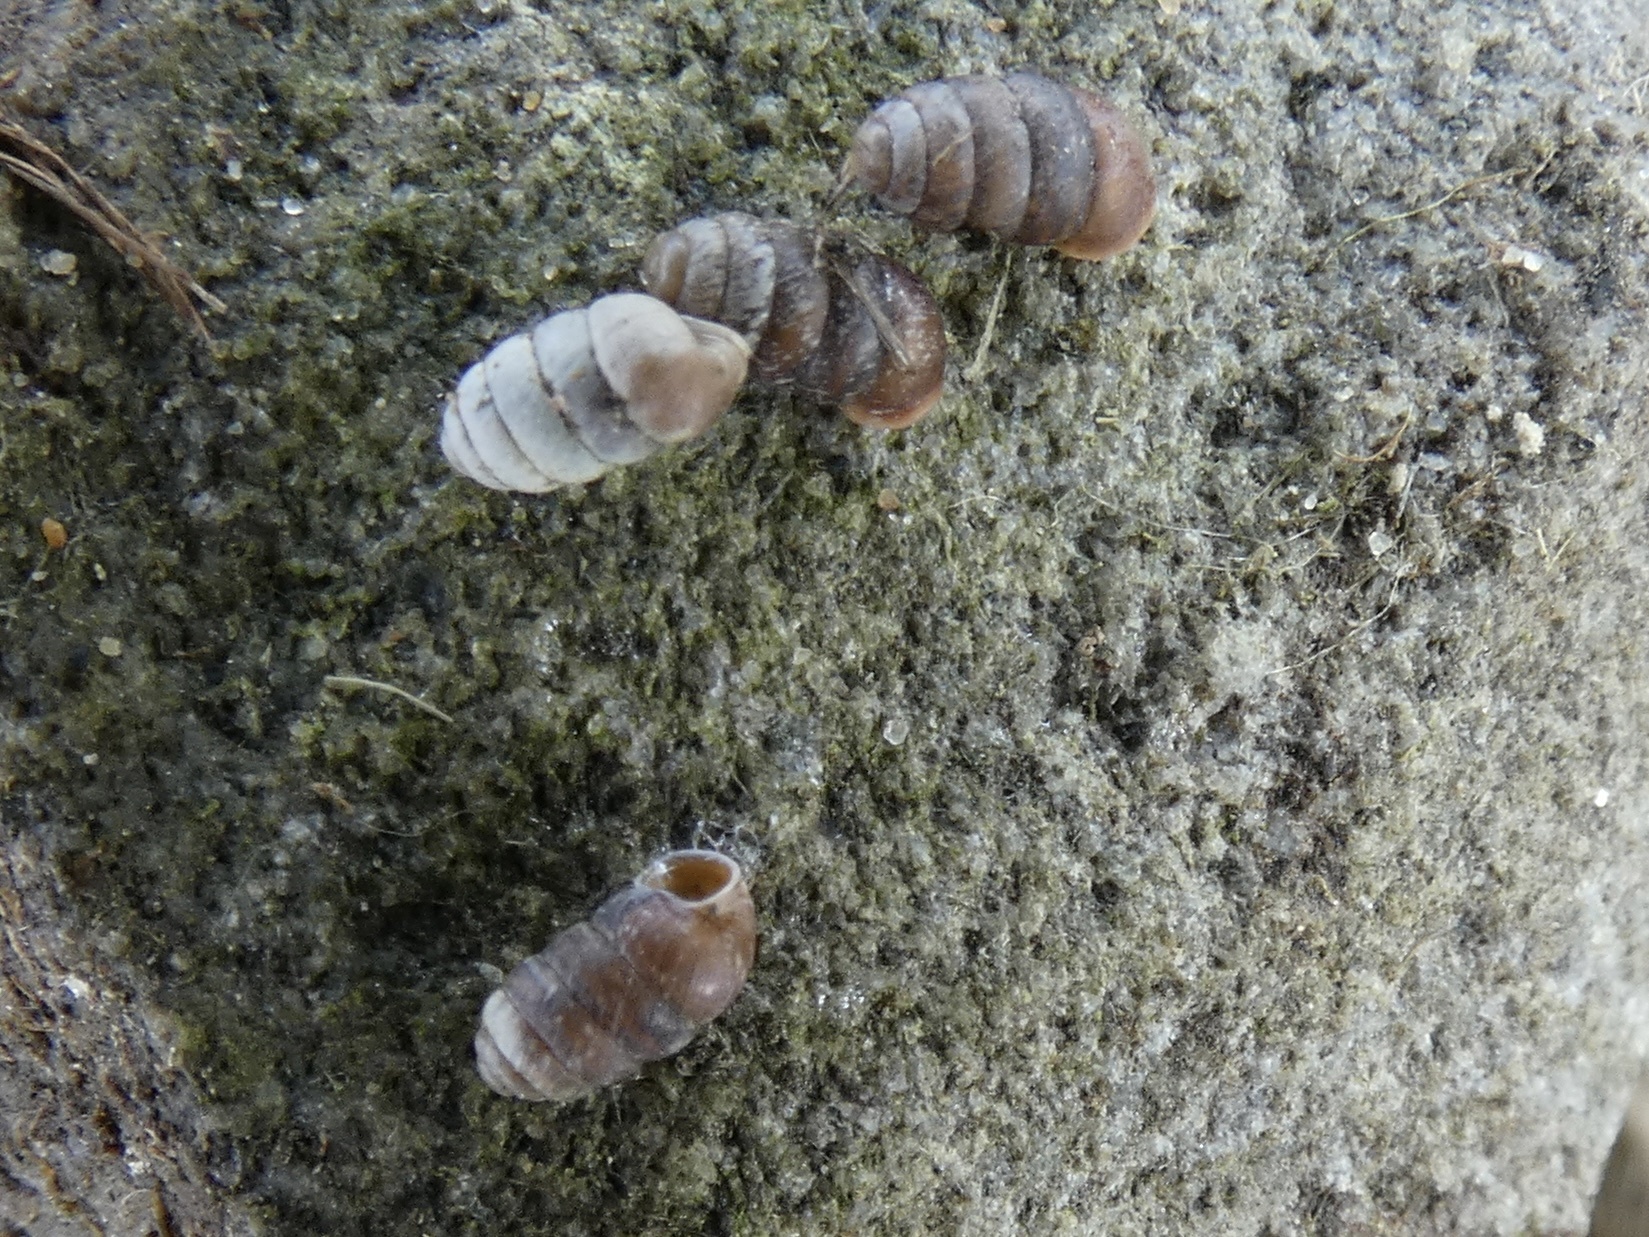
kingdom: Animalia
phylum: Mollusca
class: Gastropoda
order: Stylommatophora
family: Pupillidae
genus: Pupilla
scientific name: Pupilla muscorum
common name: Moss chrysalis snail
